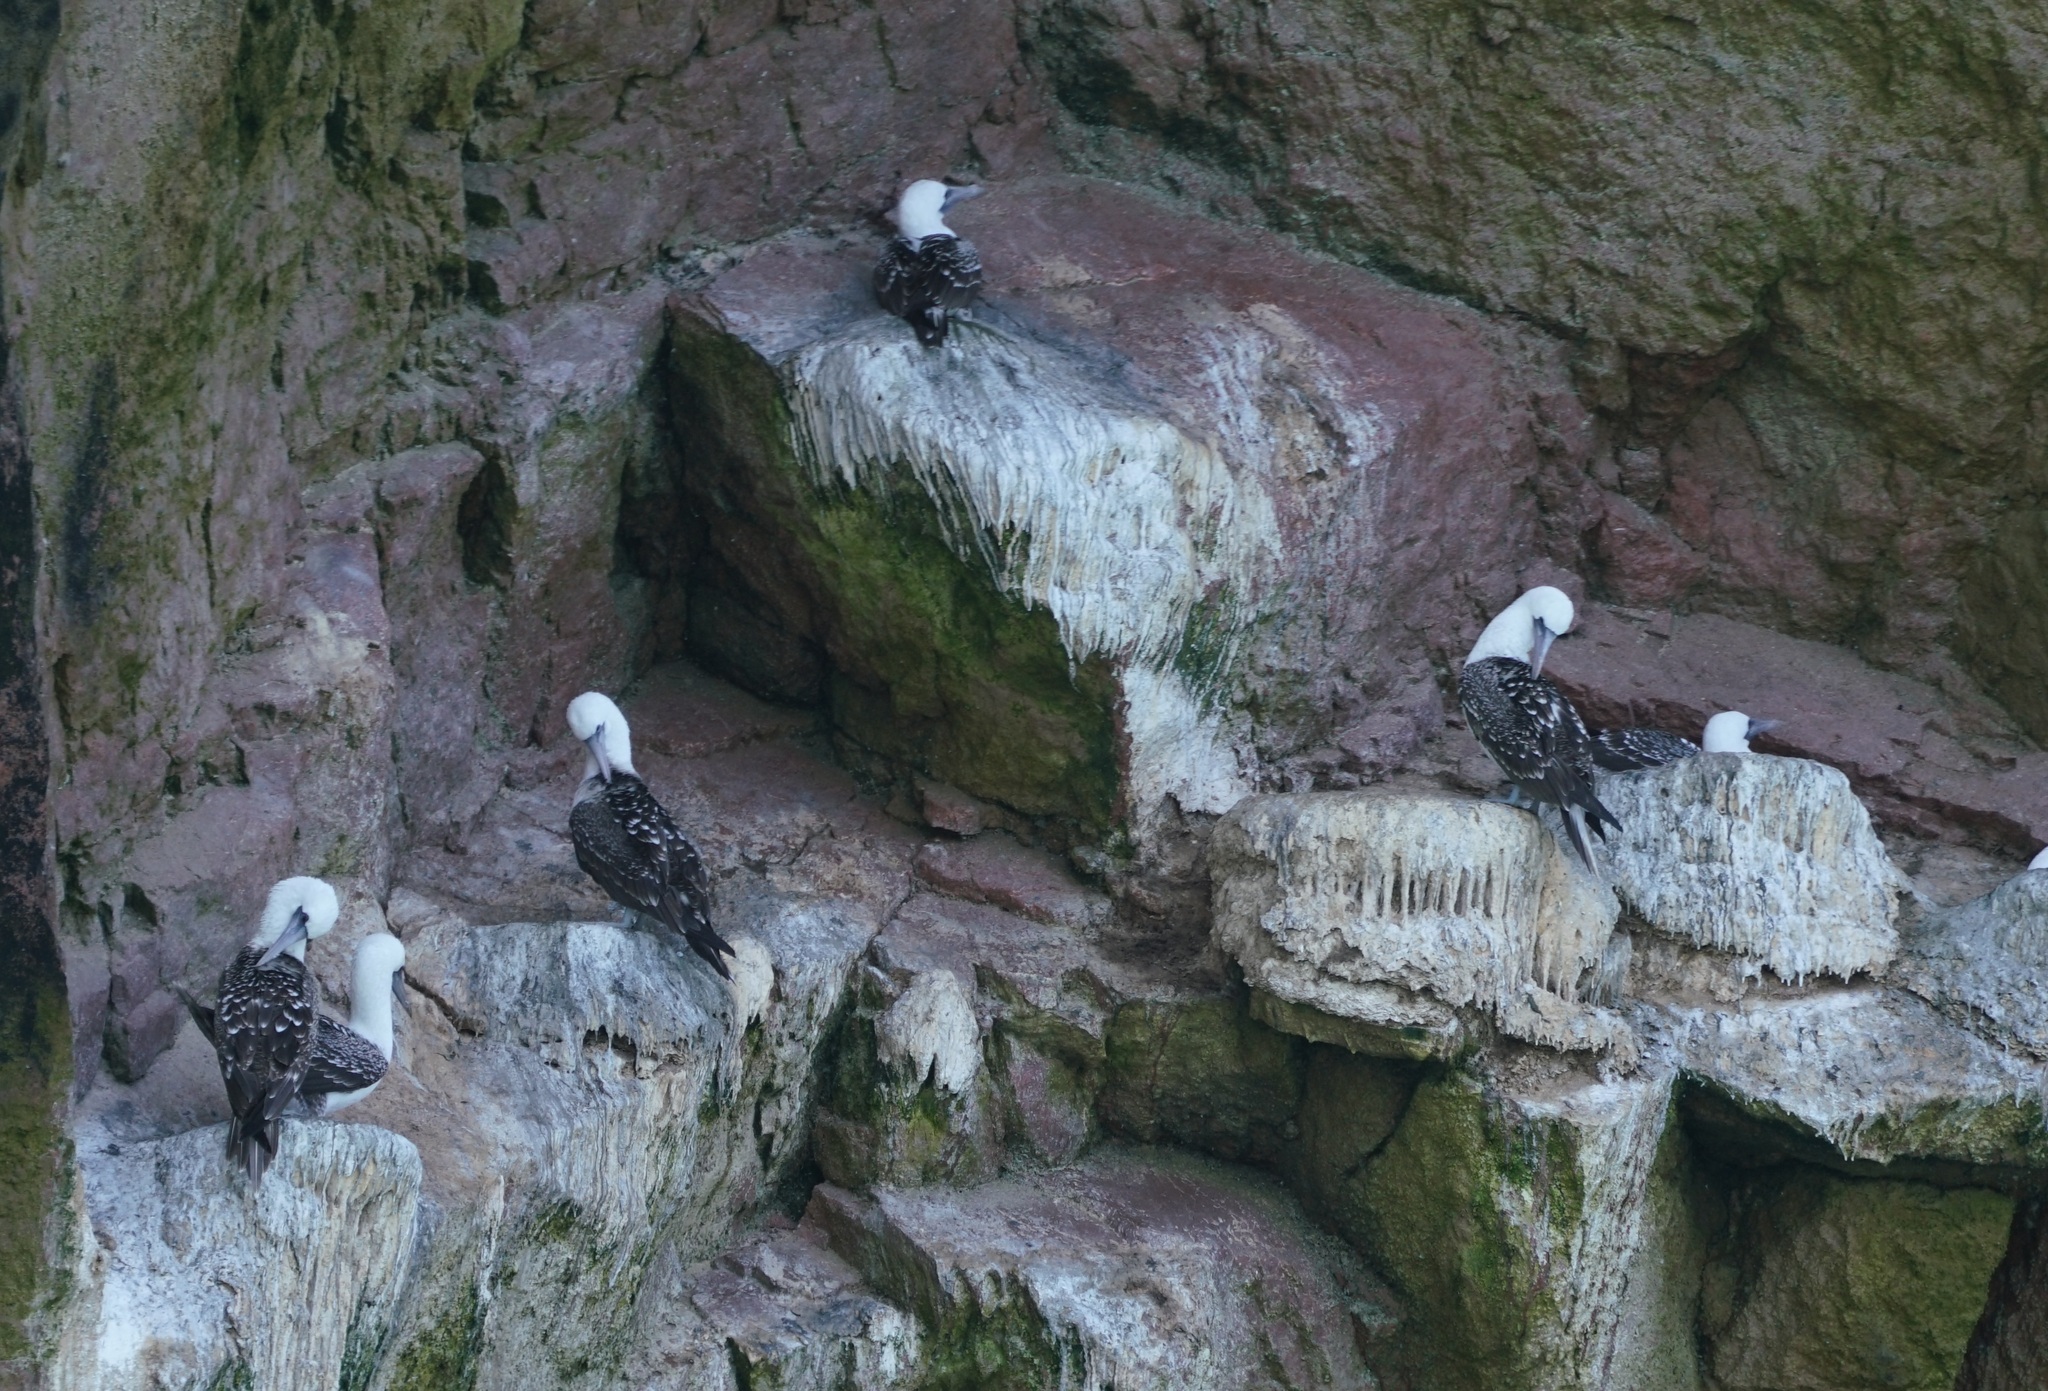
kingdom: Animalia
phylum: Chordata
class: Aves
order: Suliformes
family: Sulidae
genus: Sula
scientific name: Sula variegata
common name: Peruvian booby
